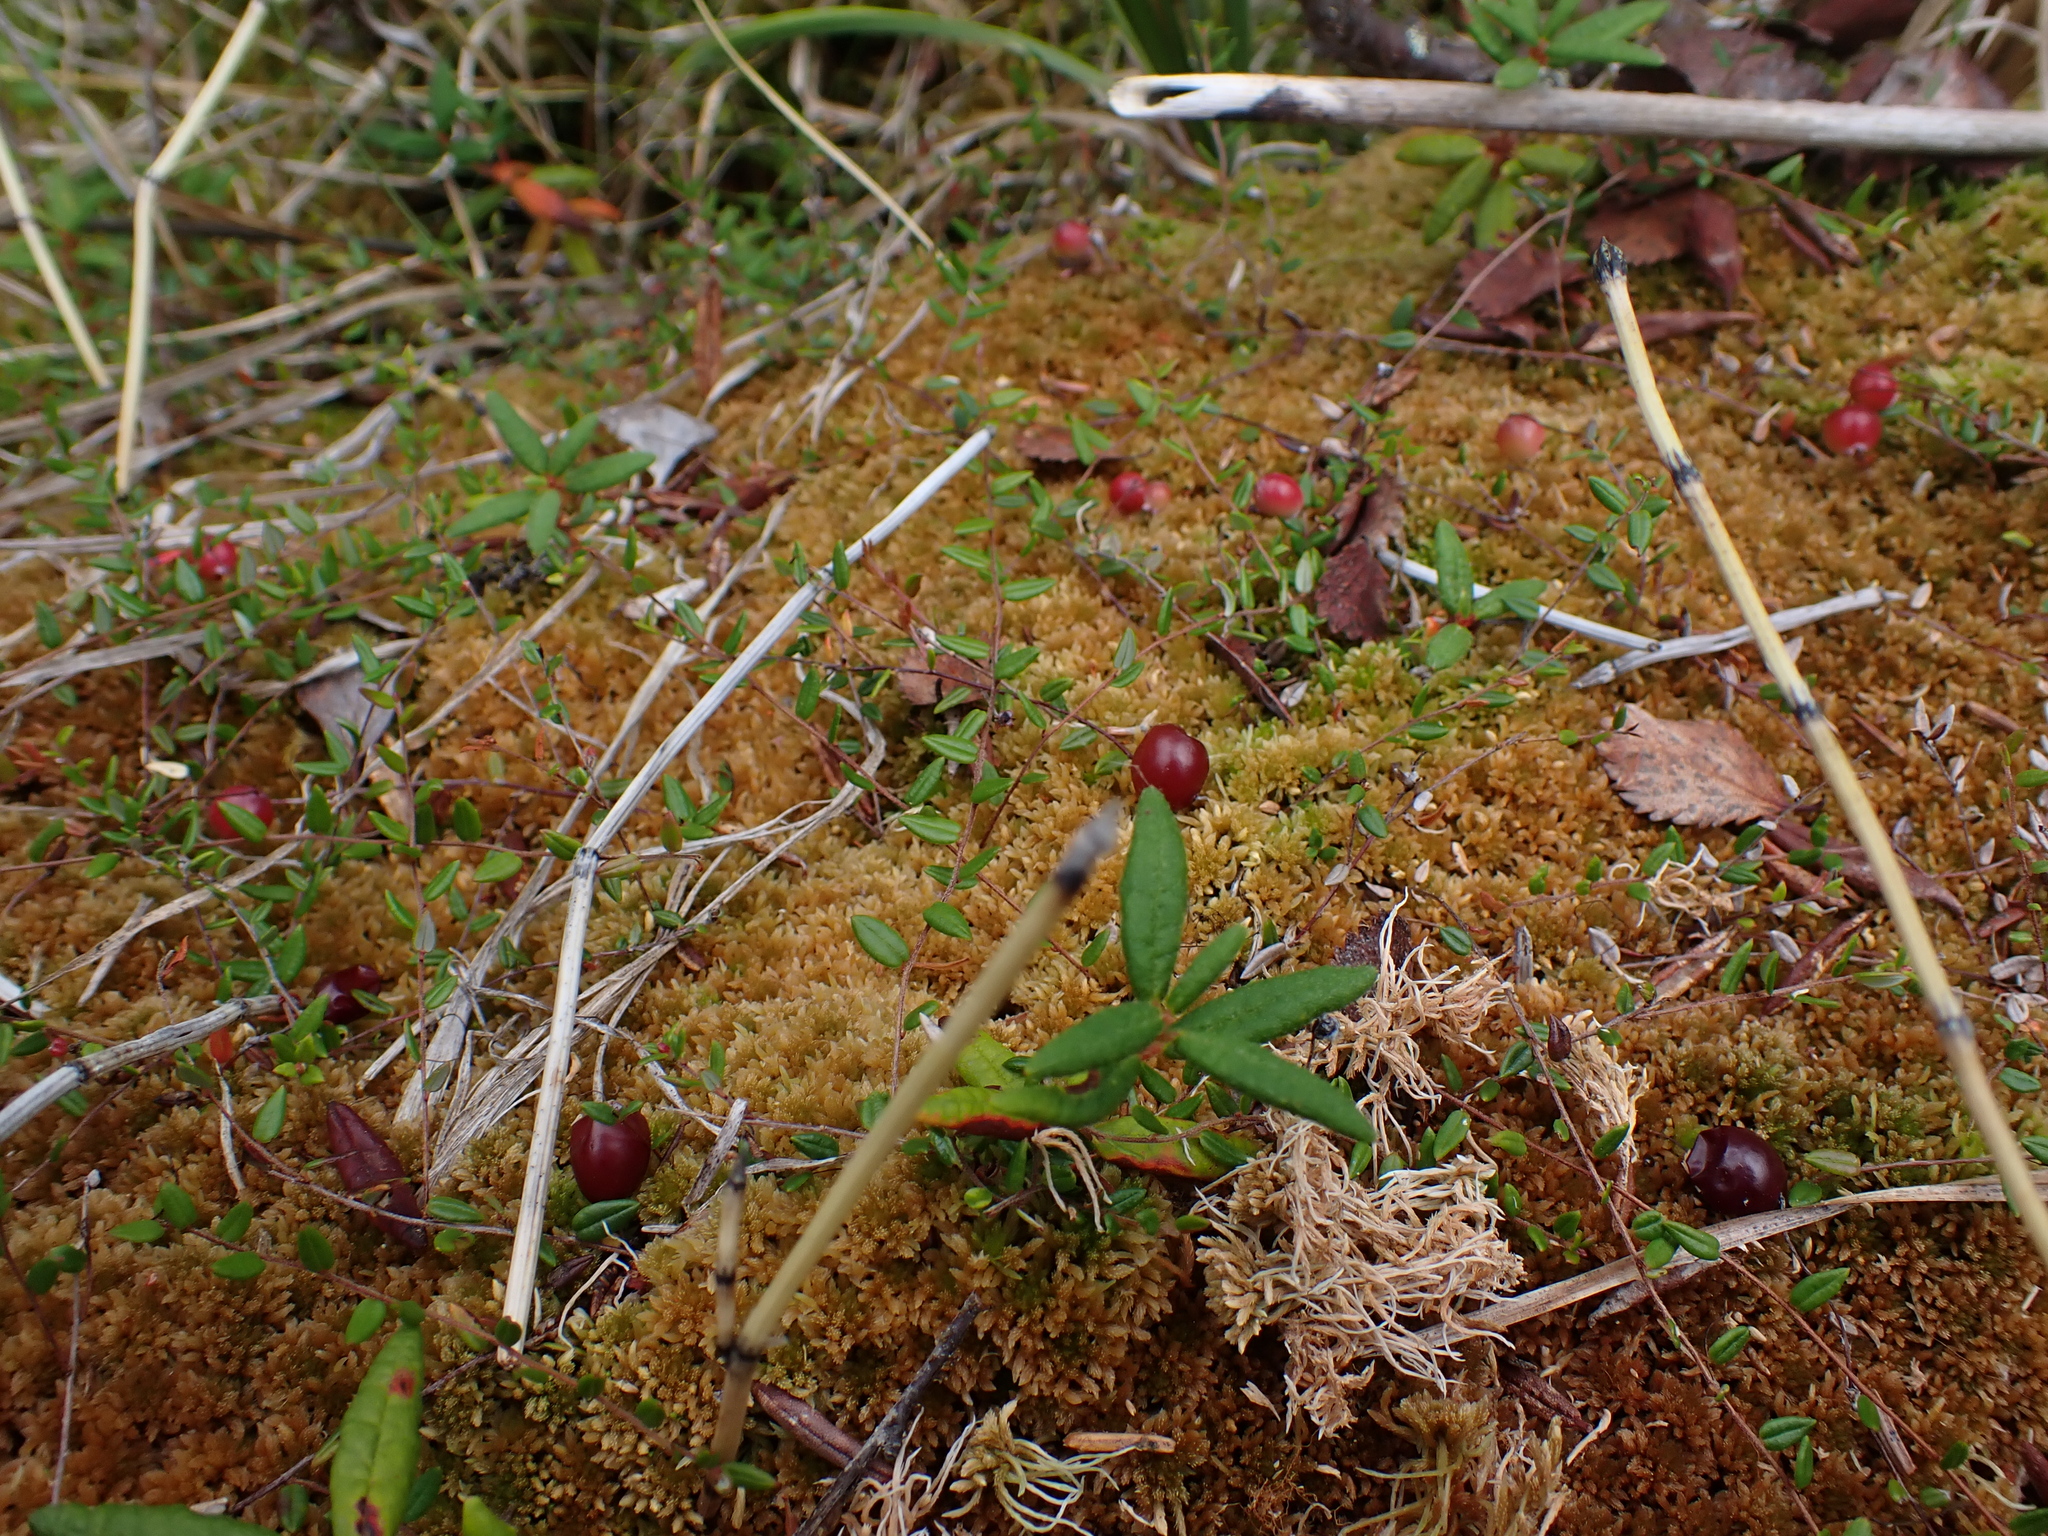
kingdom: Plantae
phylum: Tracheophyta
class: Magnoliopsida
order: Ericales
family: Ericaceae
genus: Vaccinium
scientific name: Vaccinium oxycoccos
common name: Cranberry
